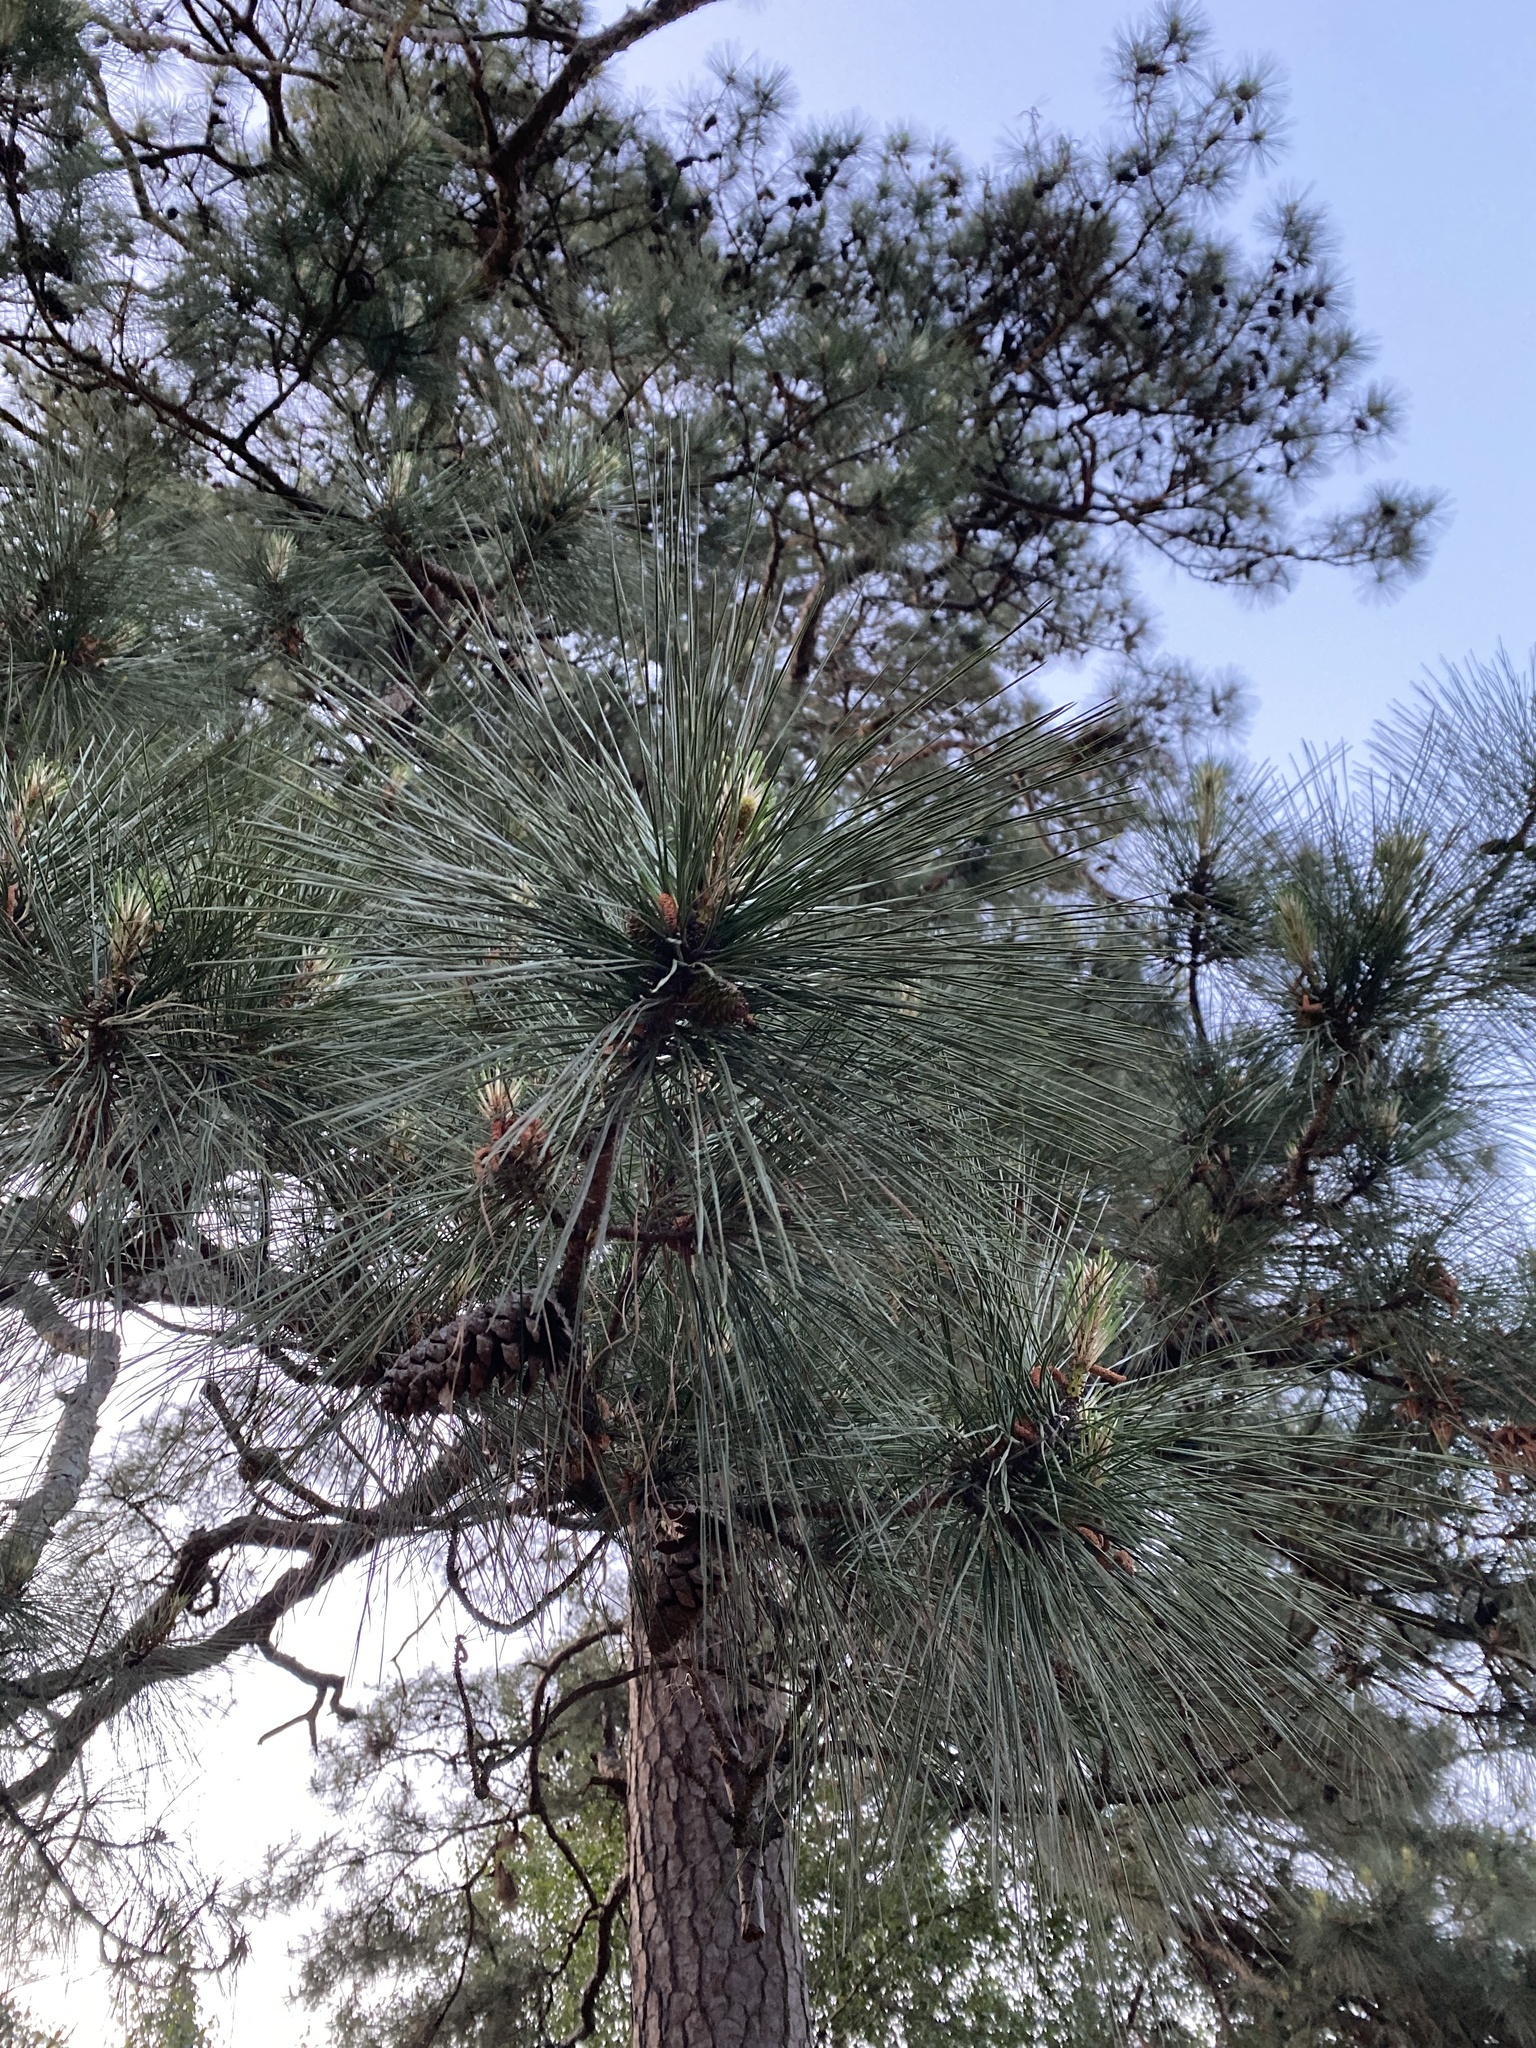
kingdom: Plantae
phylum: Tracheophyta
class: Pinopsida
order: Pinales
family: Pinaceae
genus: Pinus
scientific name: Pinus taeda
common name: Loblolly pine
